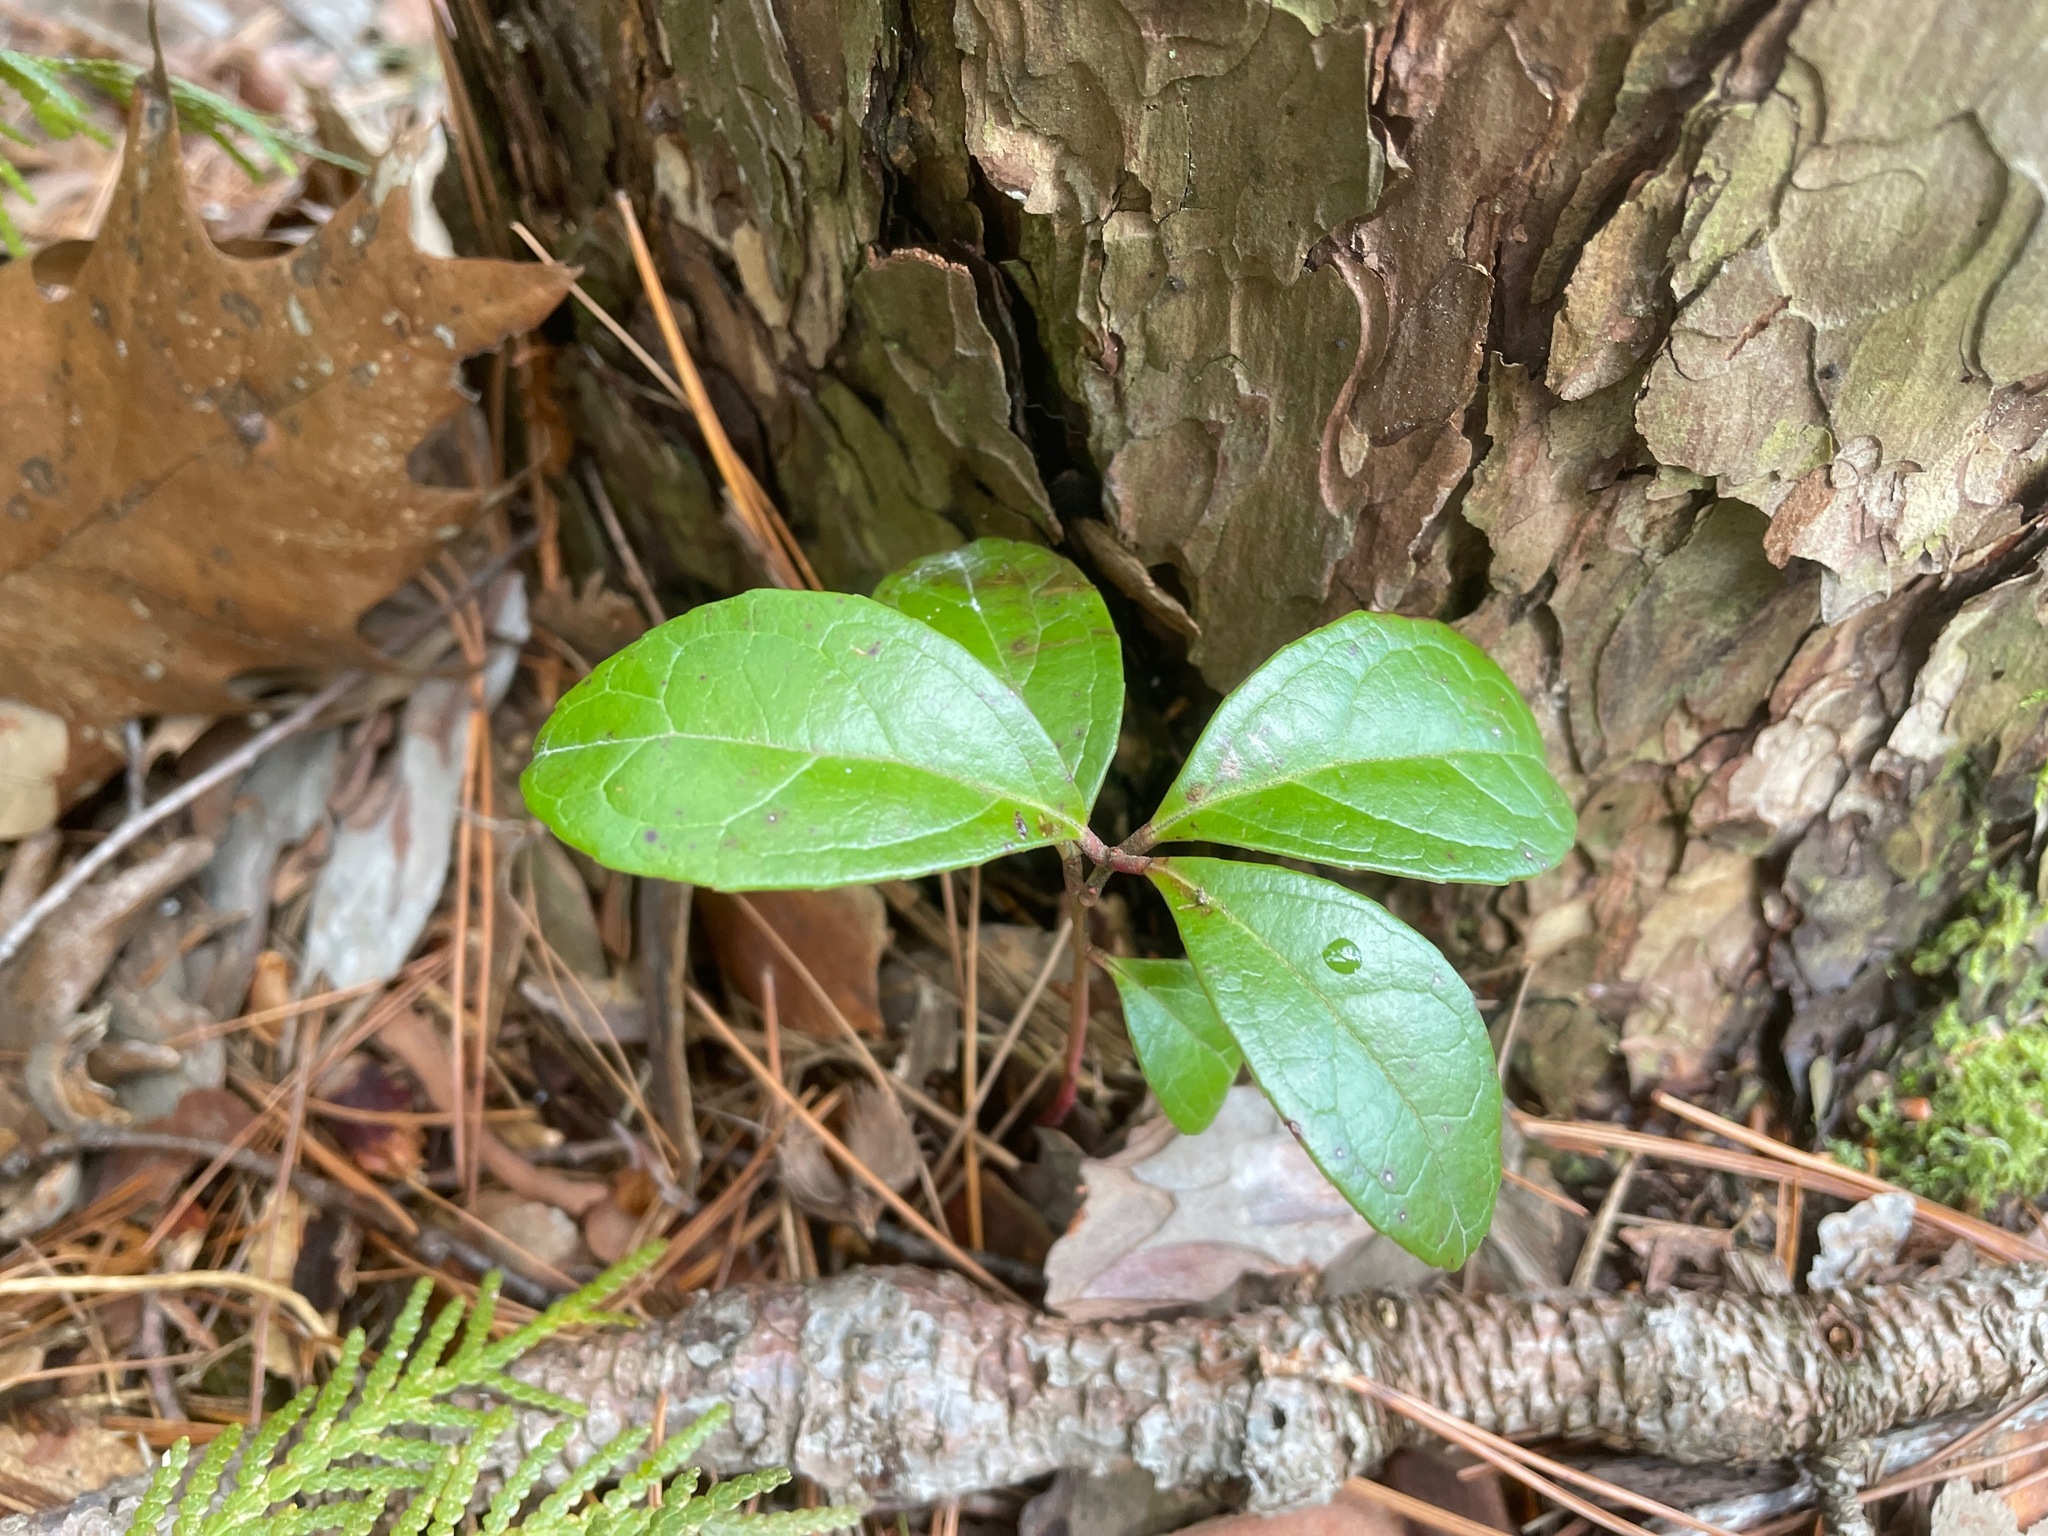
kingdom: Plantae
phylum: Tracheophyta
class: Magnoliopsida
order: Ericales
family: Ericaceae
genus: Gaultheria
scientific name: Gaultheria procumbens
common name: Checkerberry
